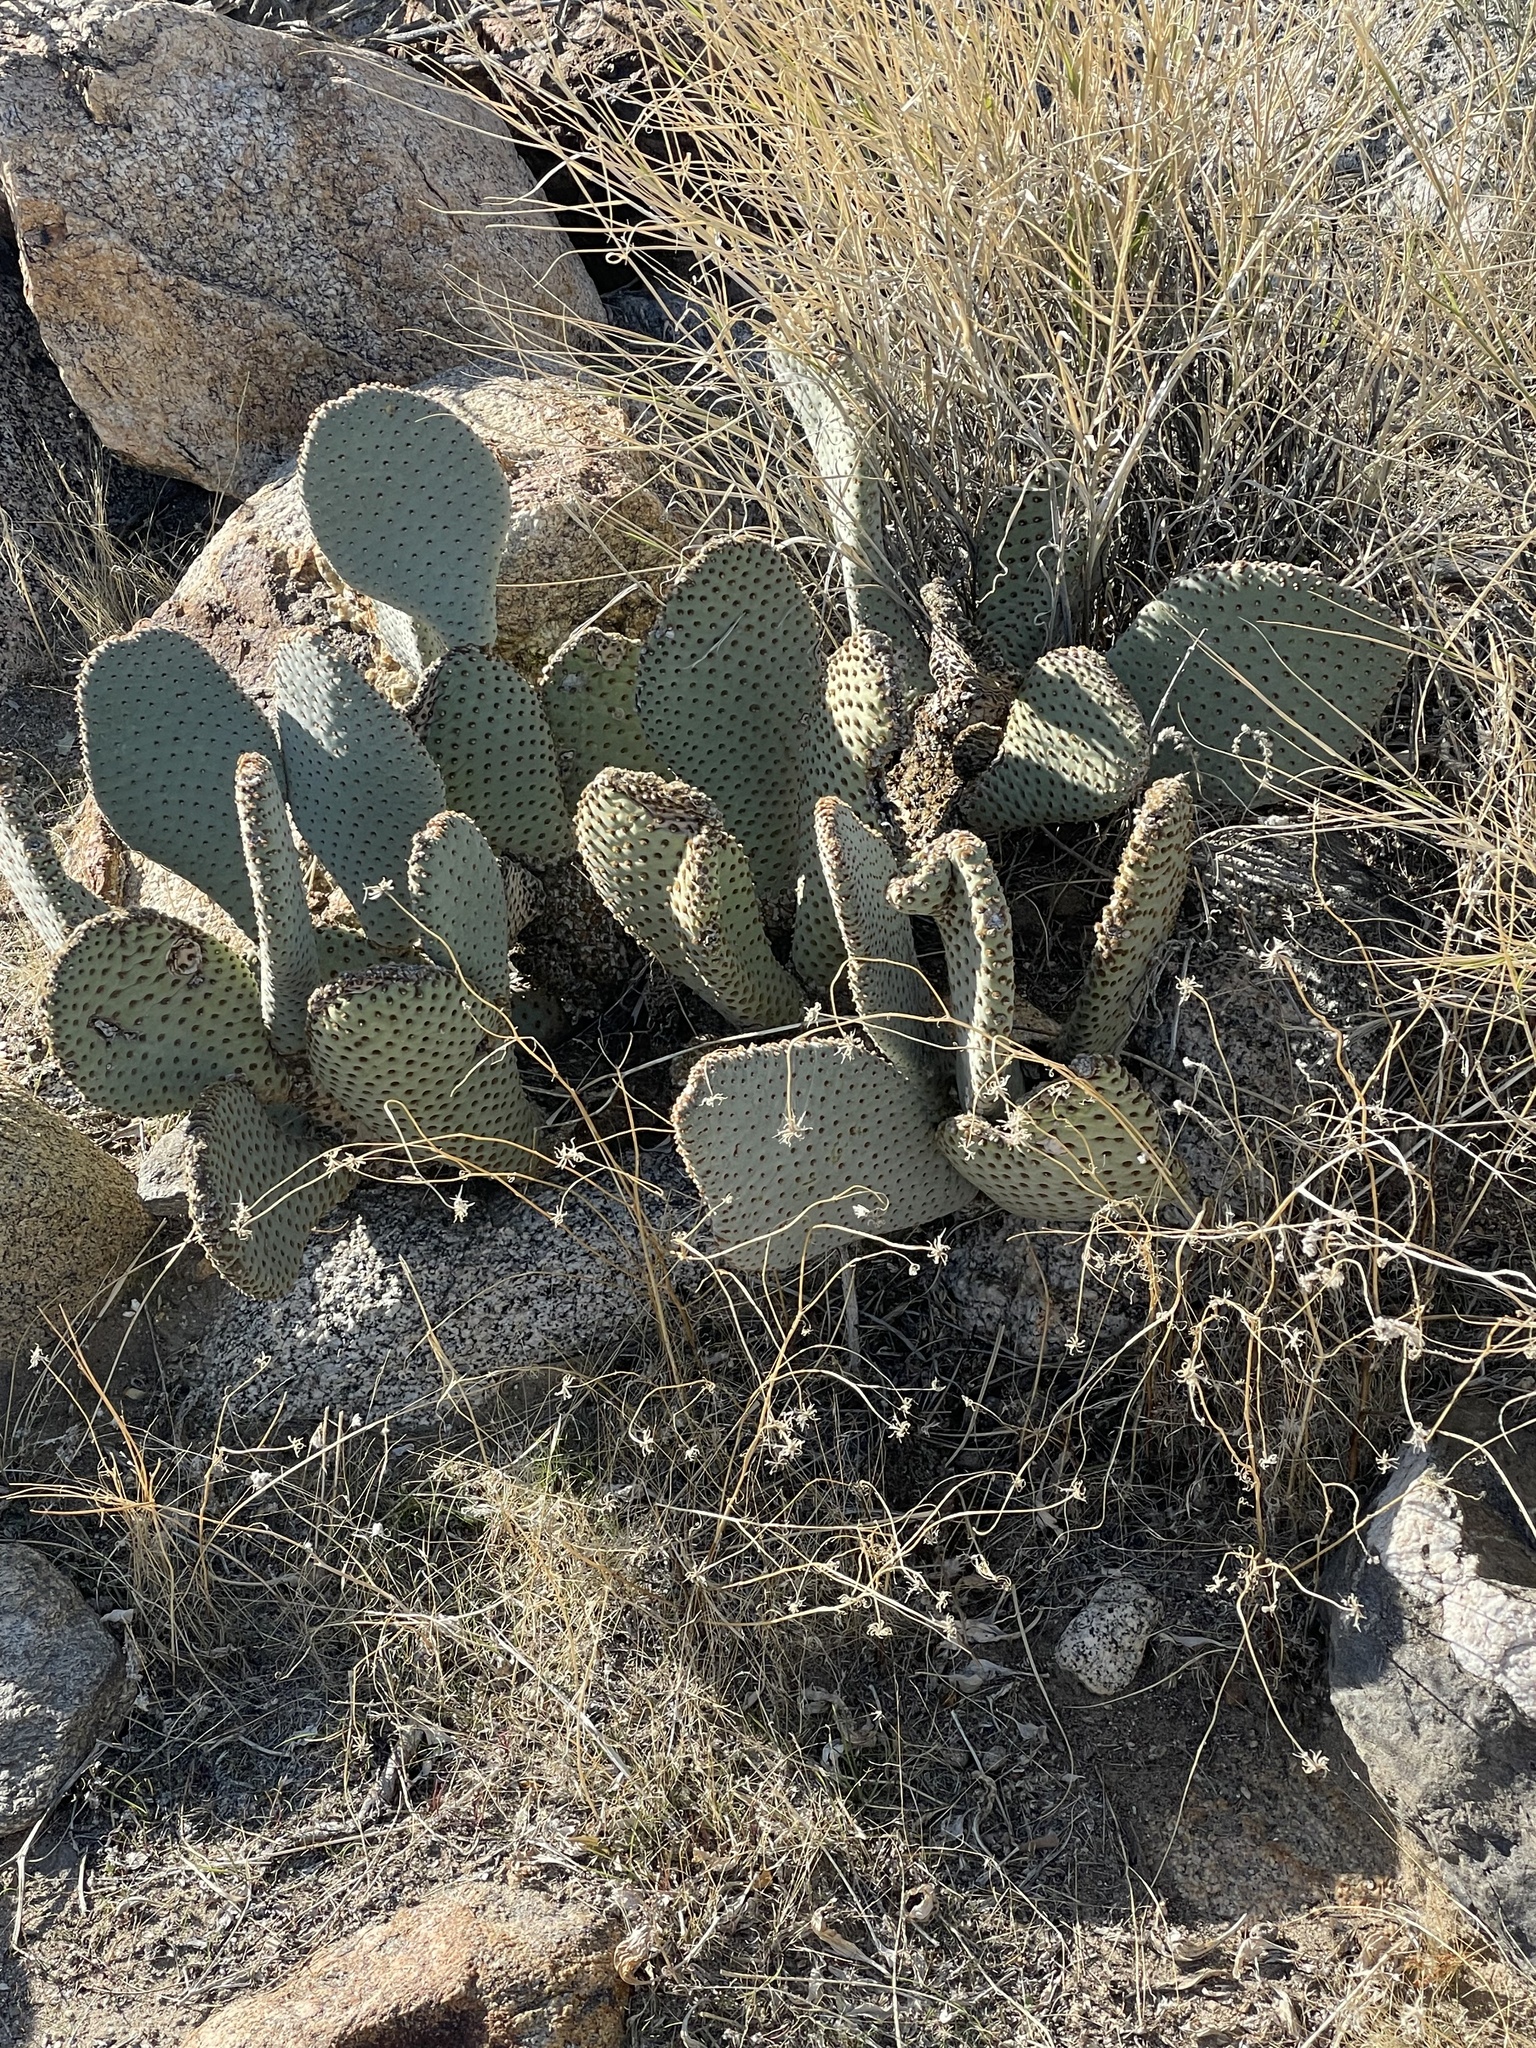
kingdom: Plantae
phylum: Tracheophyta
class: Magnoliopsida
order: Caryophyllales
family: Cactaceae
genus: Opuntia
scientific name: Opuntia basilaris
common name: Beavertail prickly-pear
